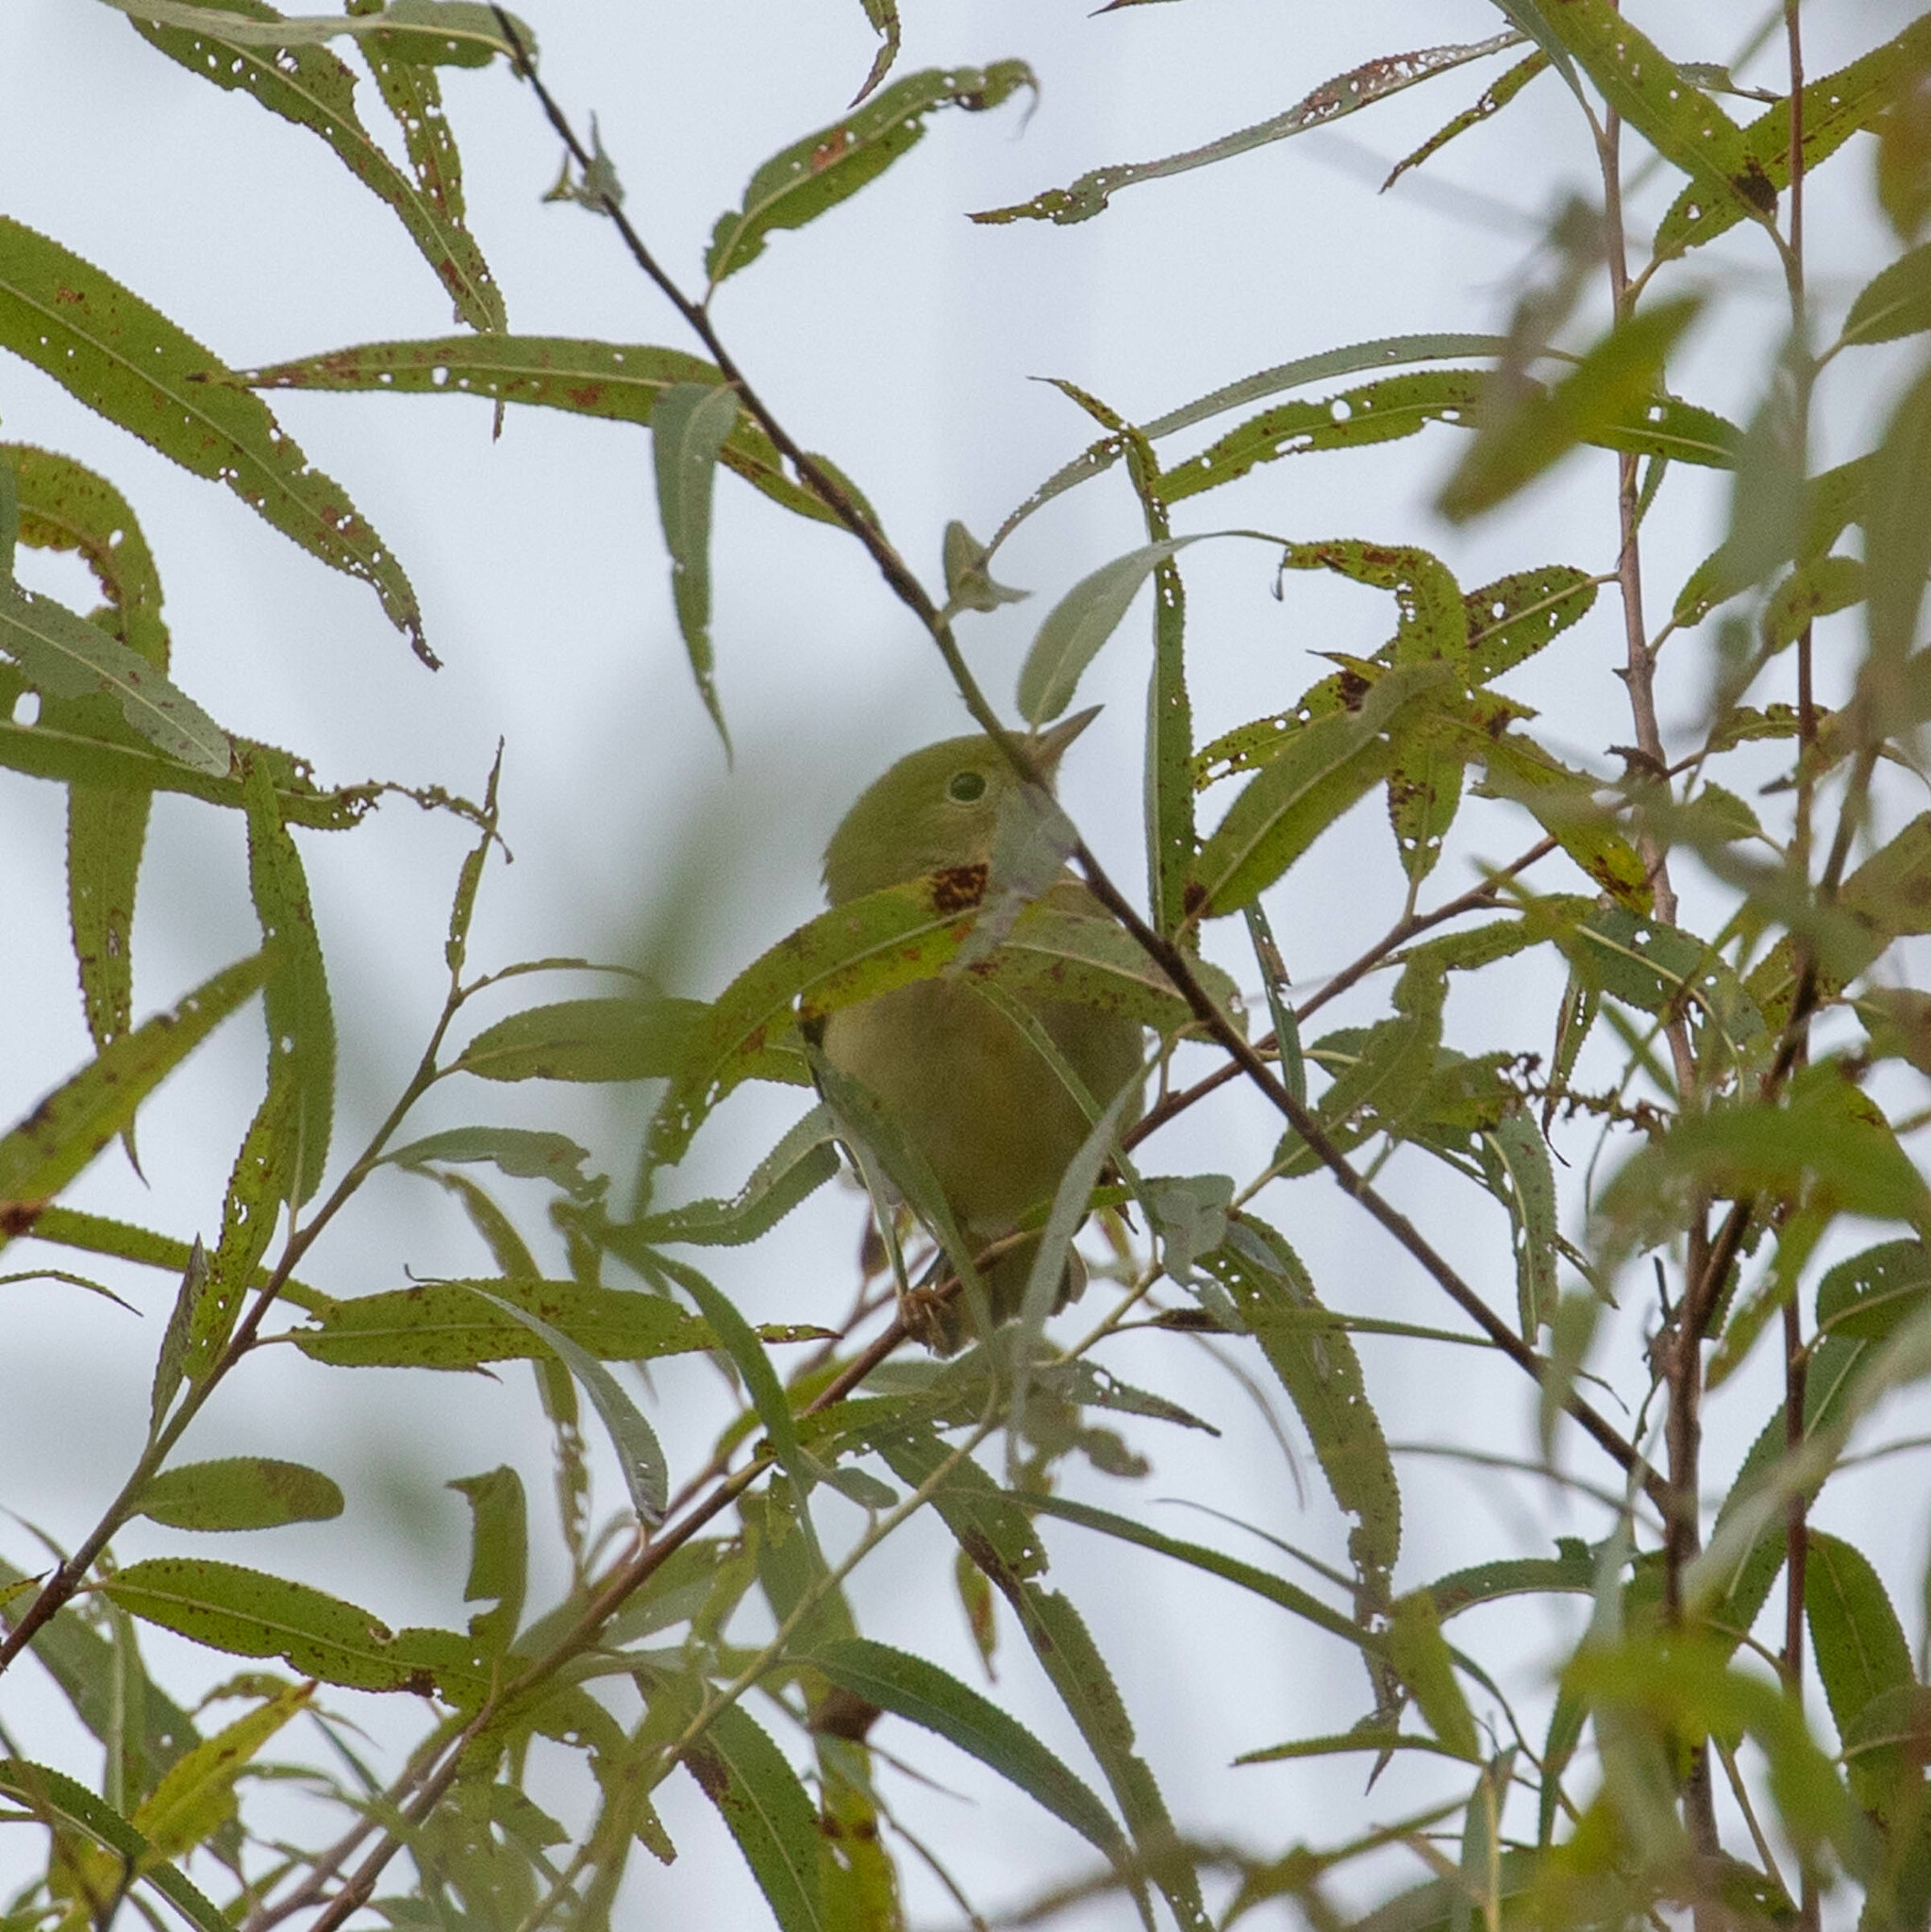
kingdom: Animalia
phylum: Chordata
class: Aves
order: Passeriformes
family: Parulidae
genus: Setophaga
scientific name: Setophaga petechia
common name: Yellow warbler
